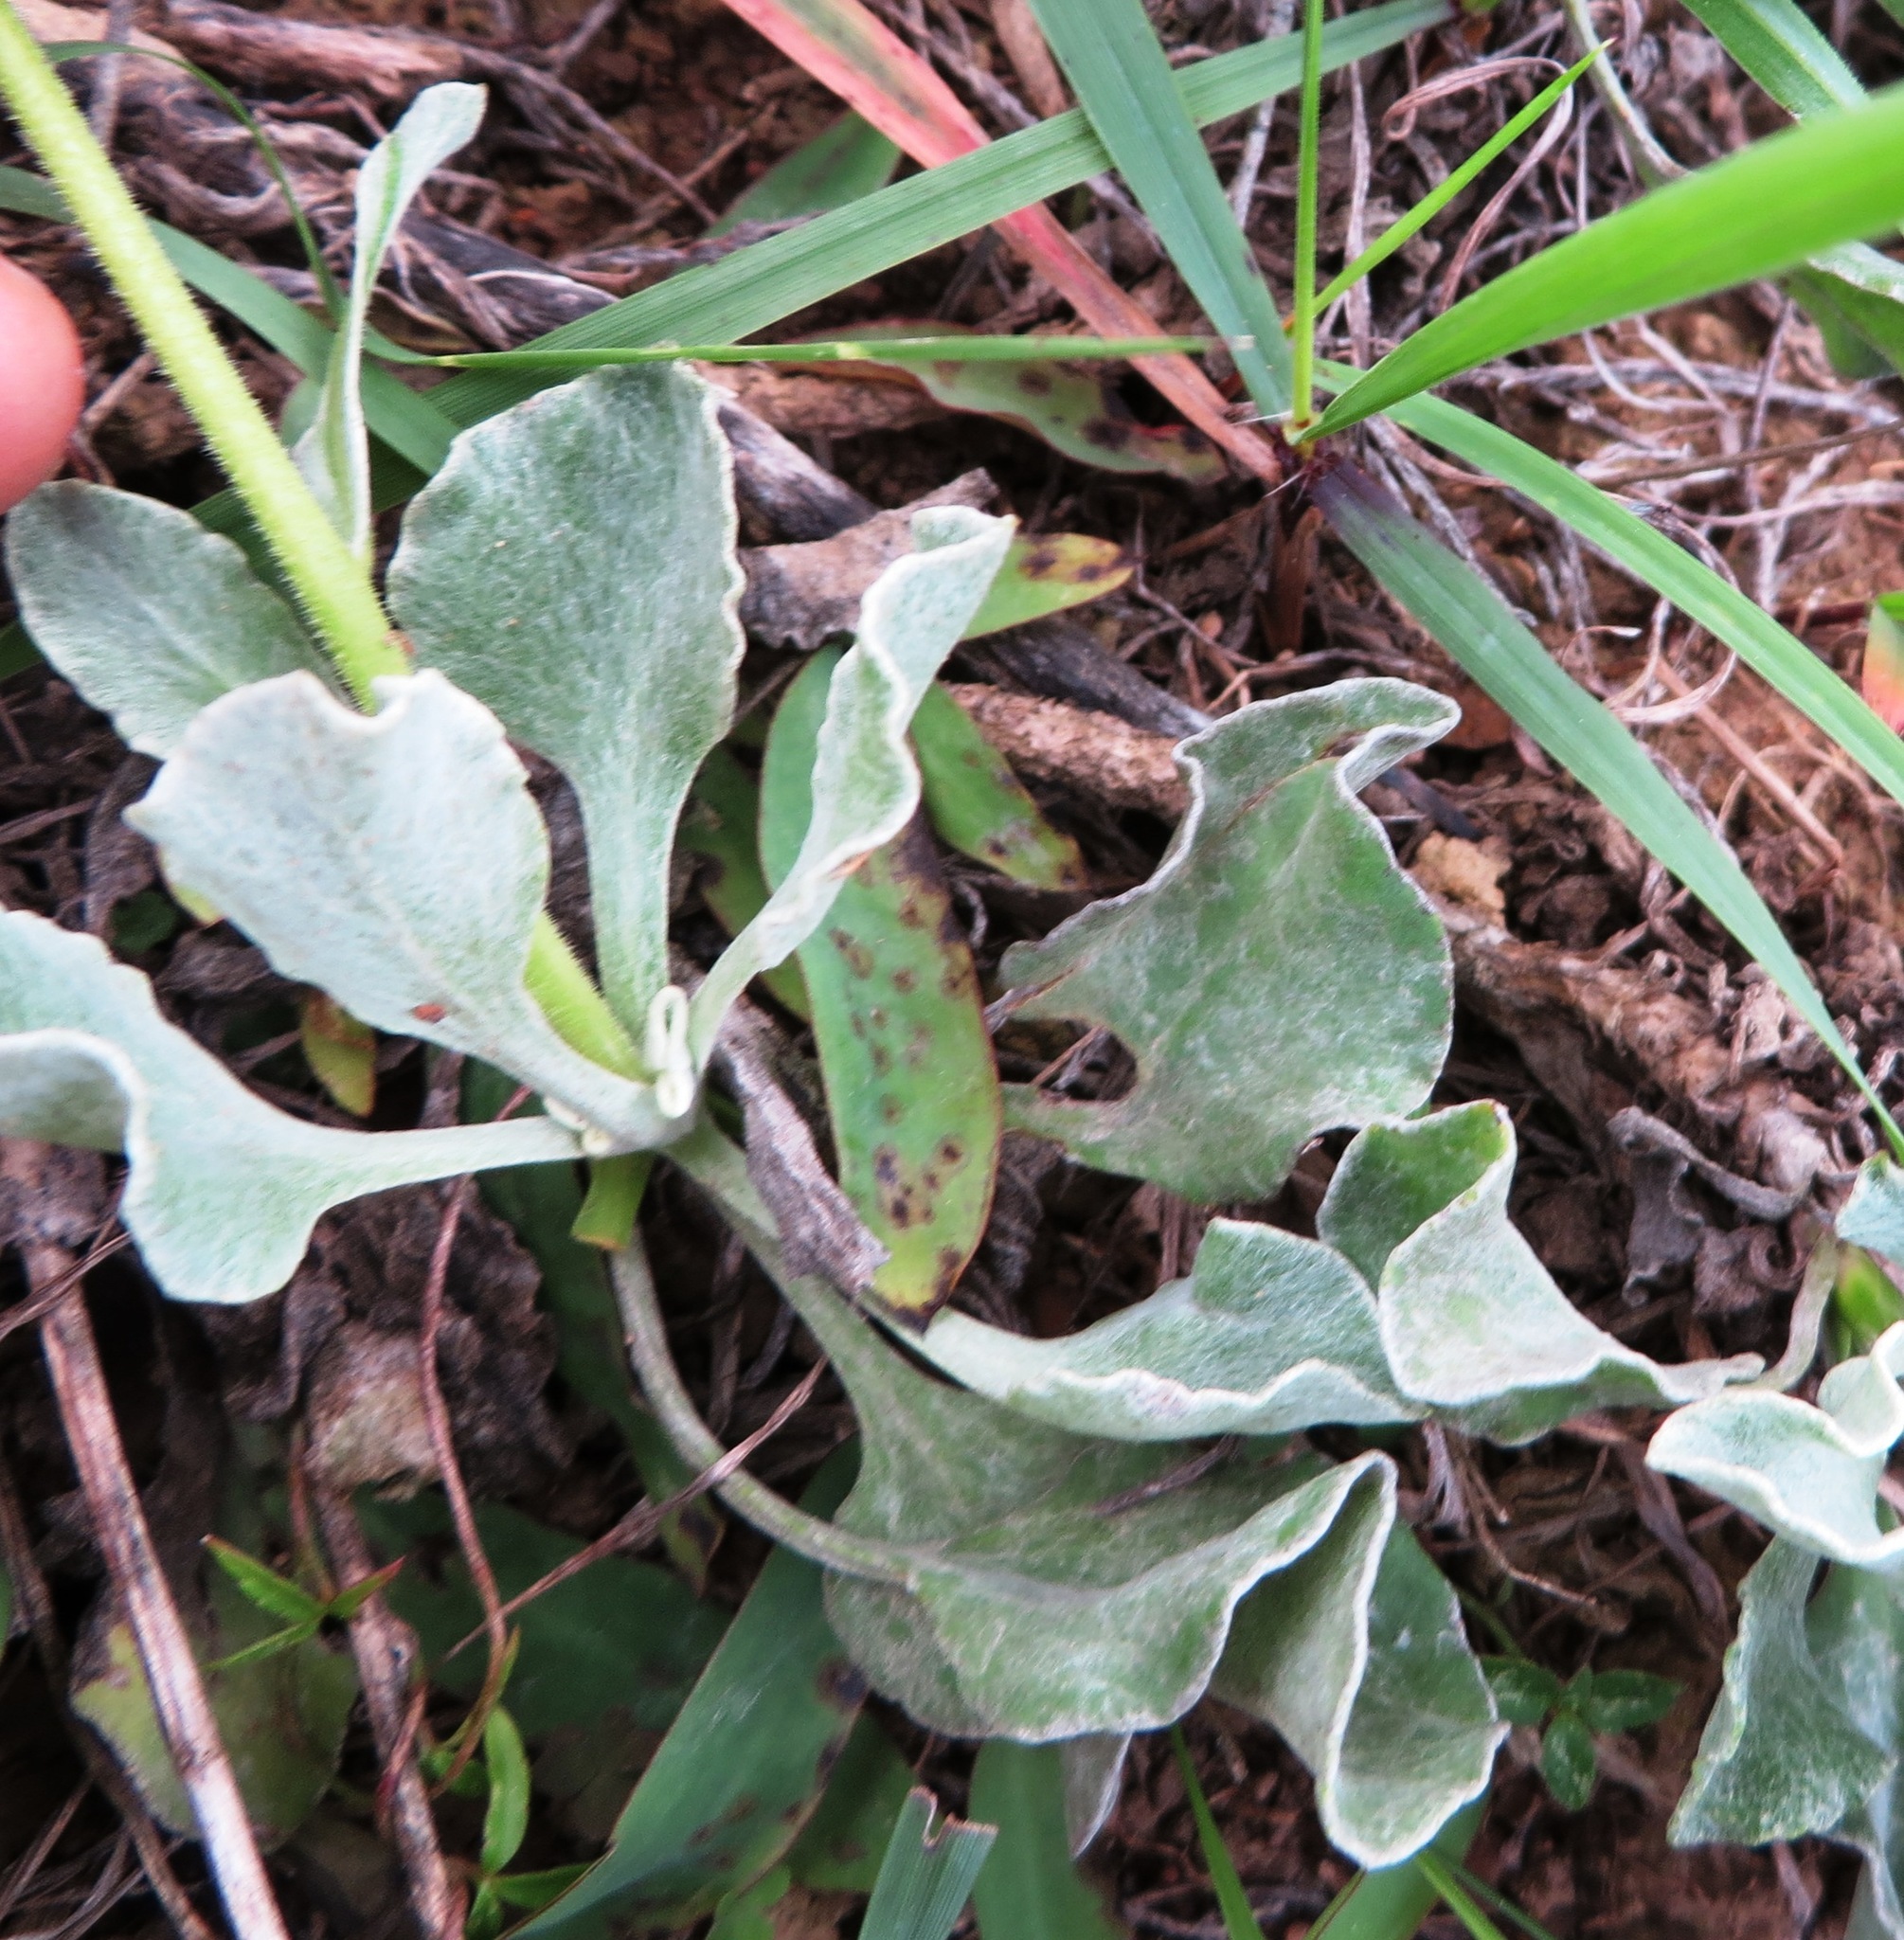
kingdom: Plantae
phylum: Tracheophyta
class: Magnoliopsida
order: Asterales
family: Asteraceae
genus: Osteospermum
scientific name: Osteospermum tomentosum
